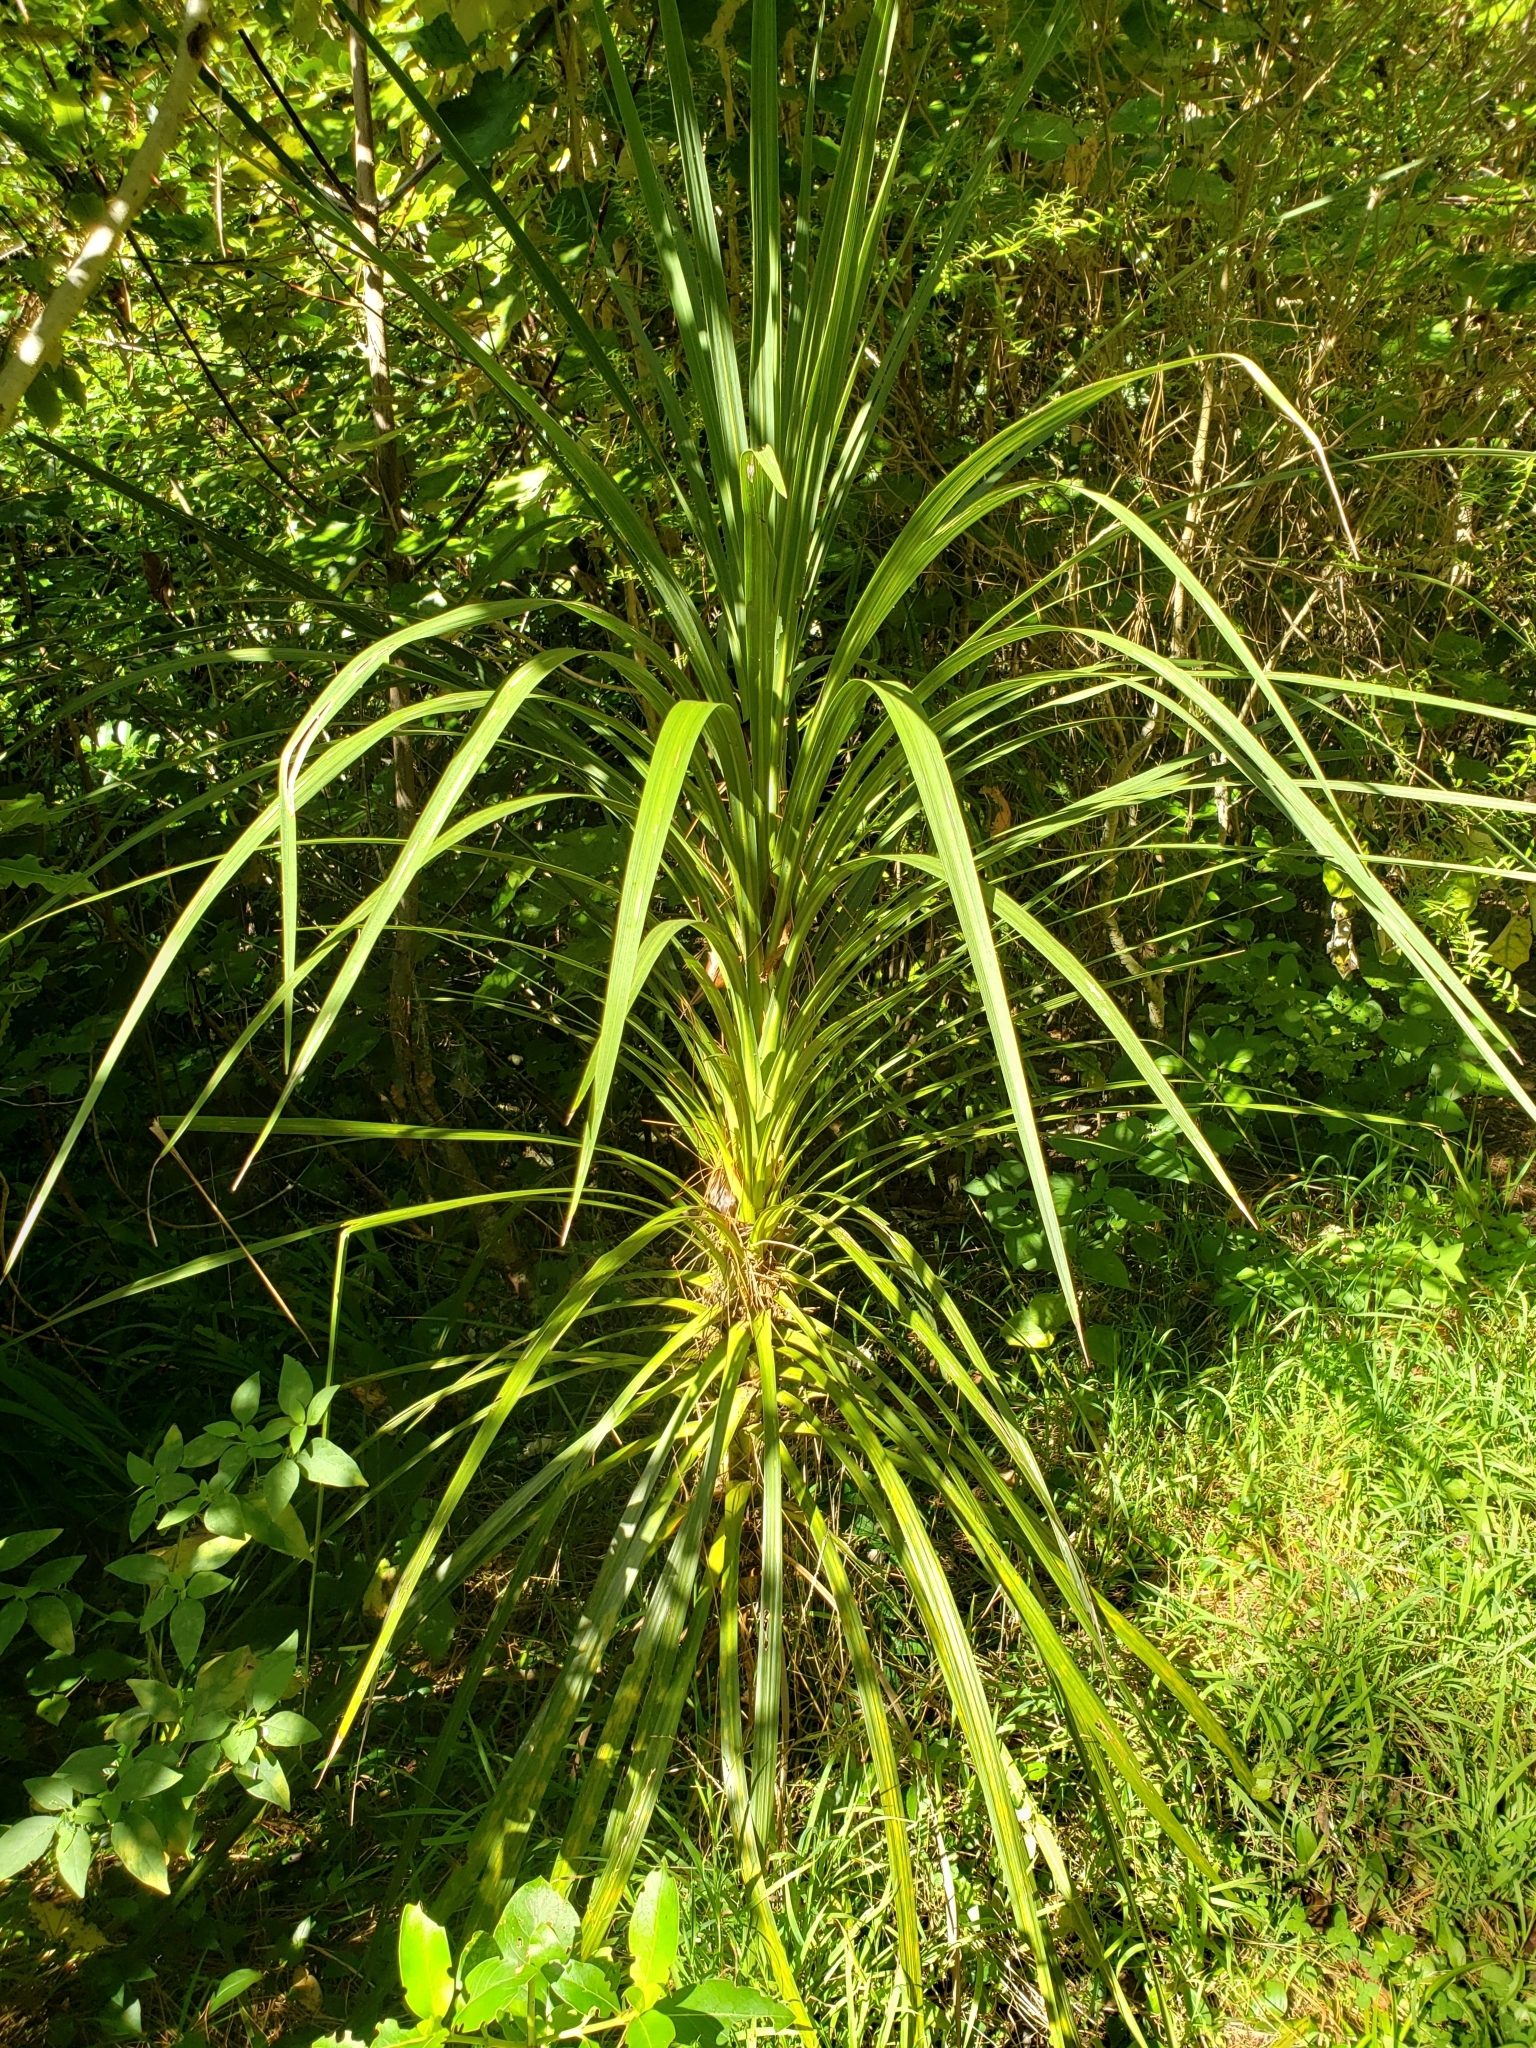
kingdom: Plantae
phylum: Tracheophyta
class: Liliopsida
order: Asparagales
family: Asparagaceae
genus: Cordyline
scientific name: Cordyline australis
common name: Cabbage-palm
